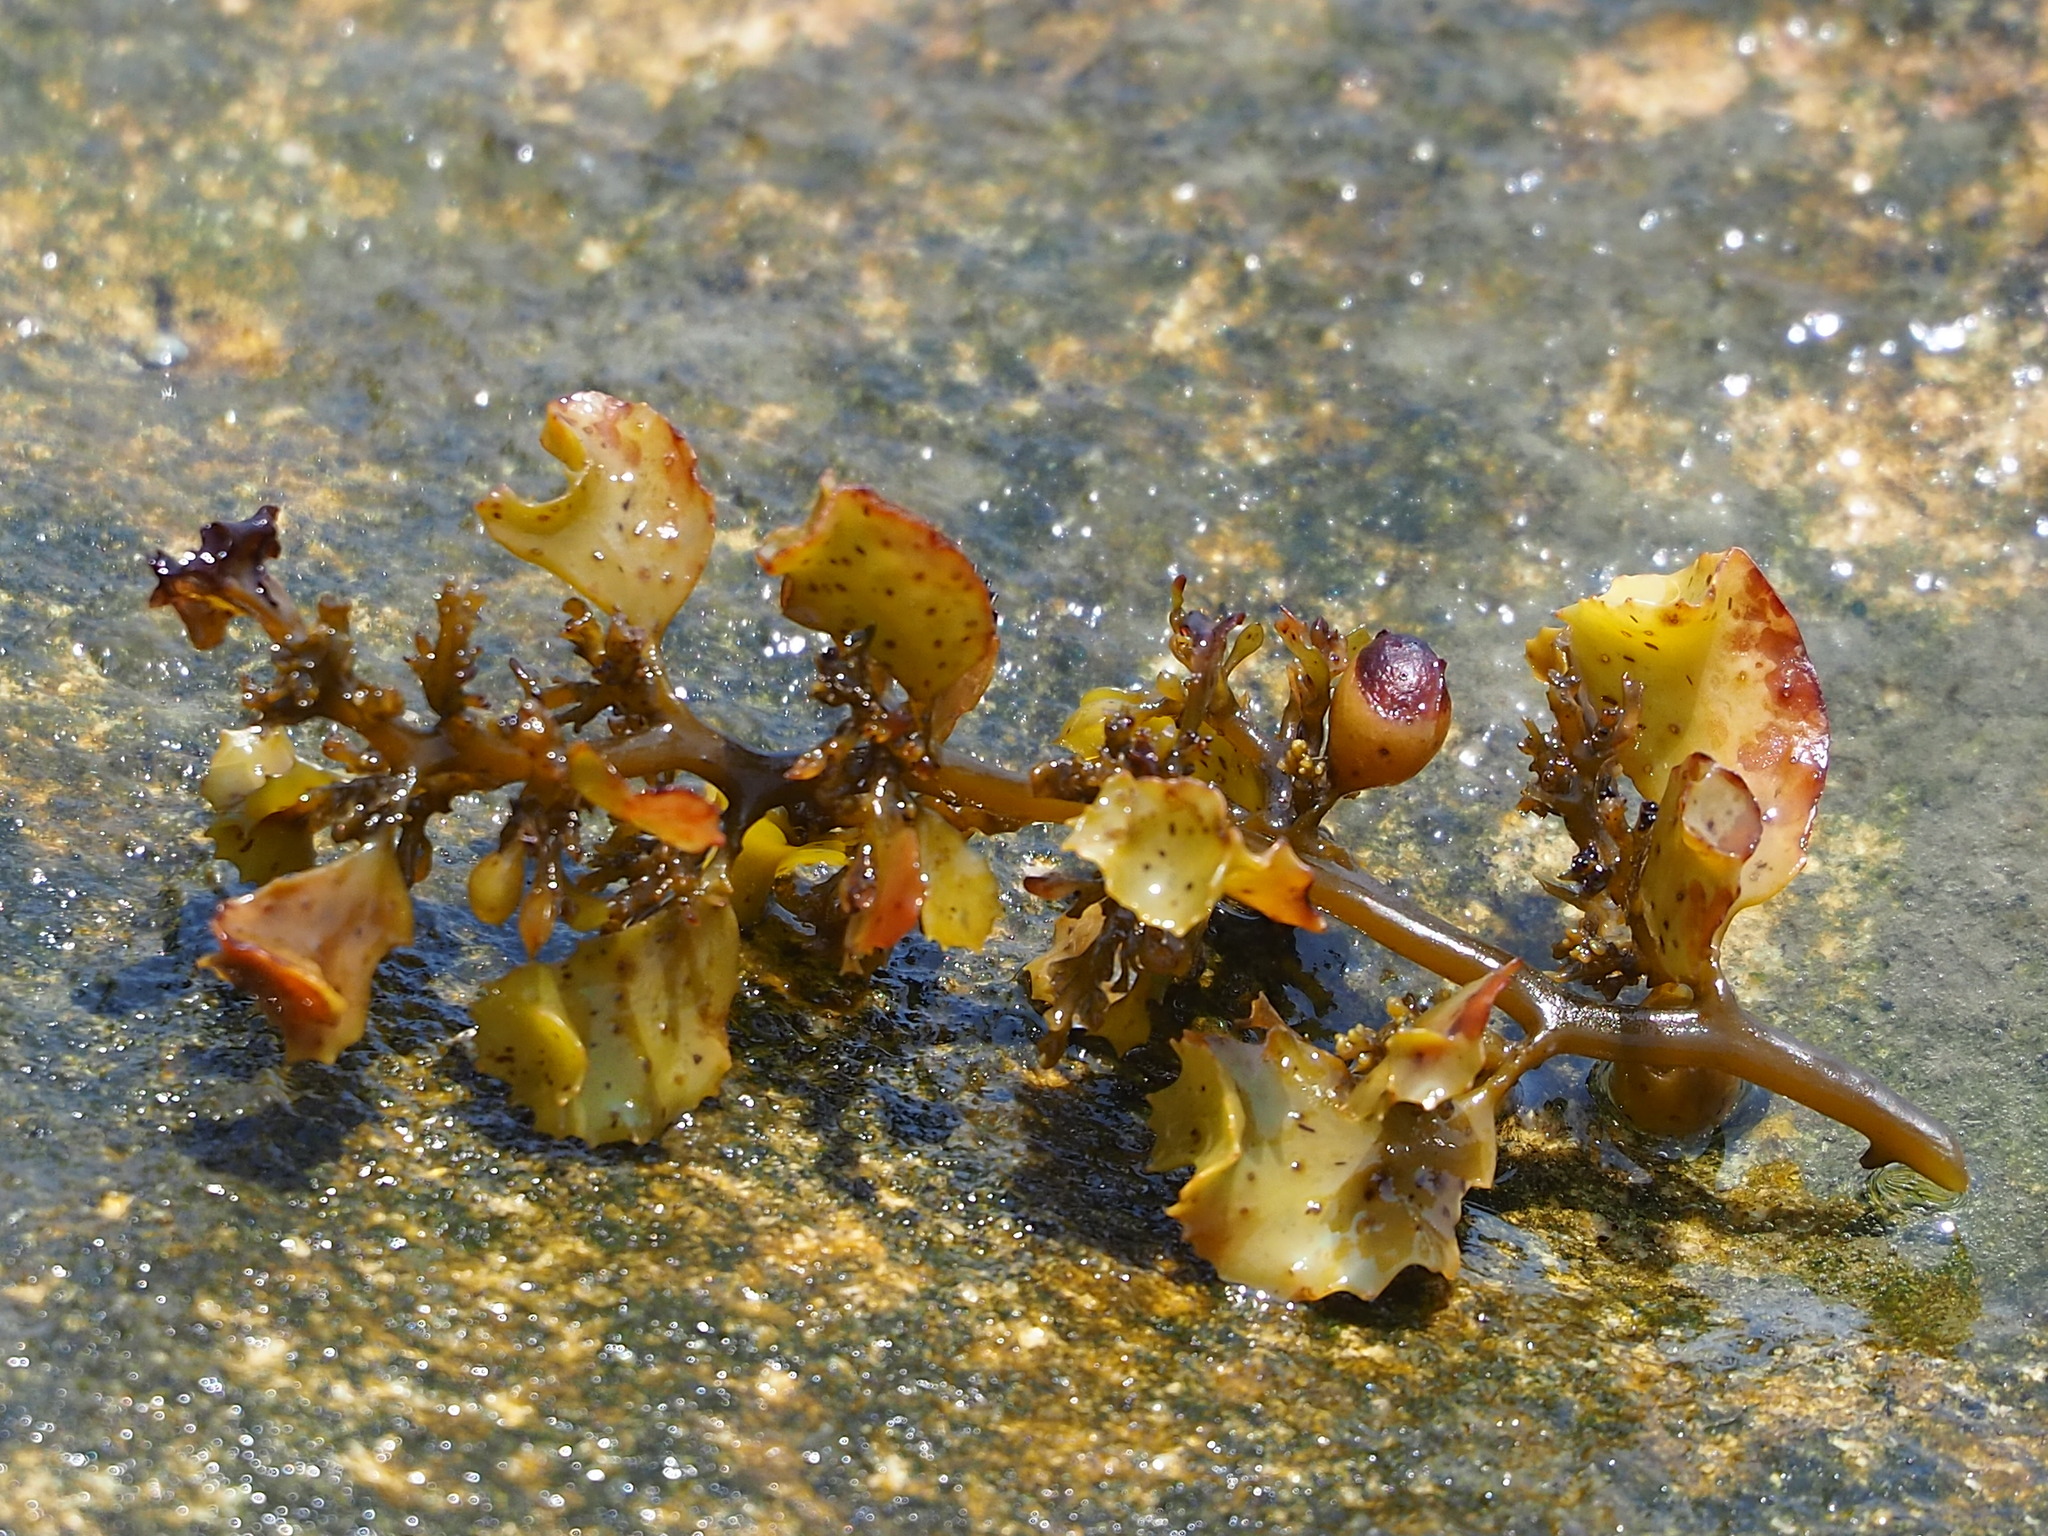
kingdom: Chromista
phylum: Ochrophyta
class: Phaeophyceae
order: Fucales
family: Sargassaceae
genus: Sargassum
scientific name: Sargassum ilicifolium
